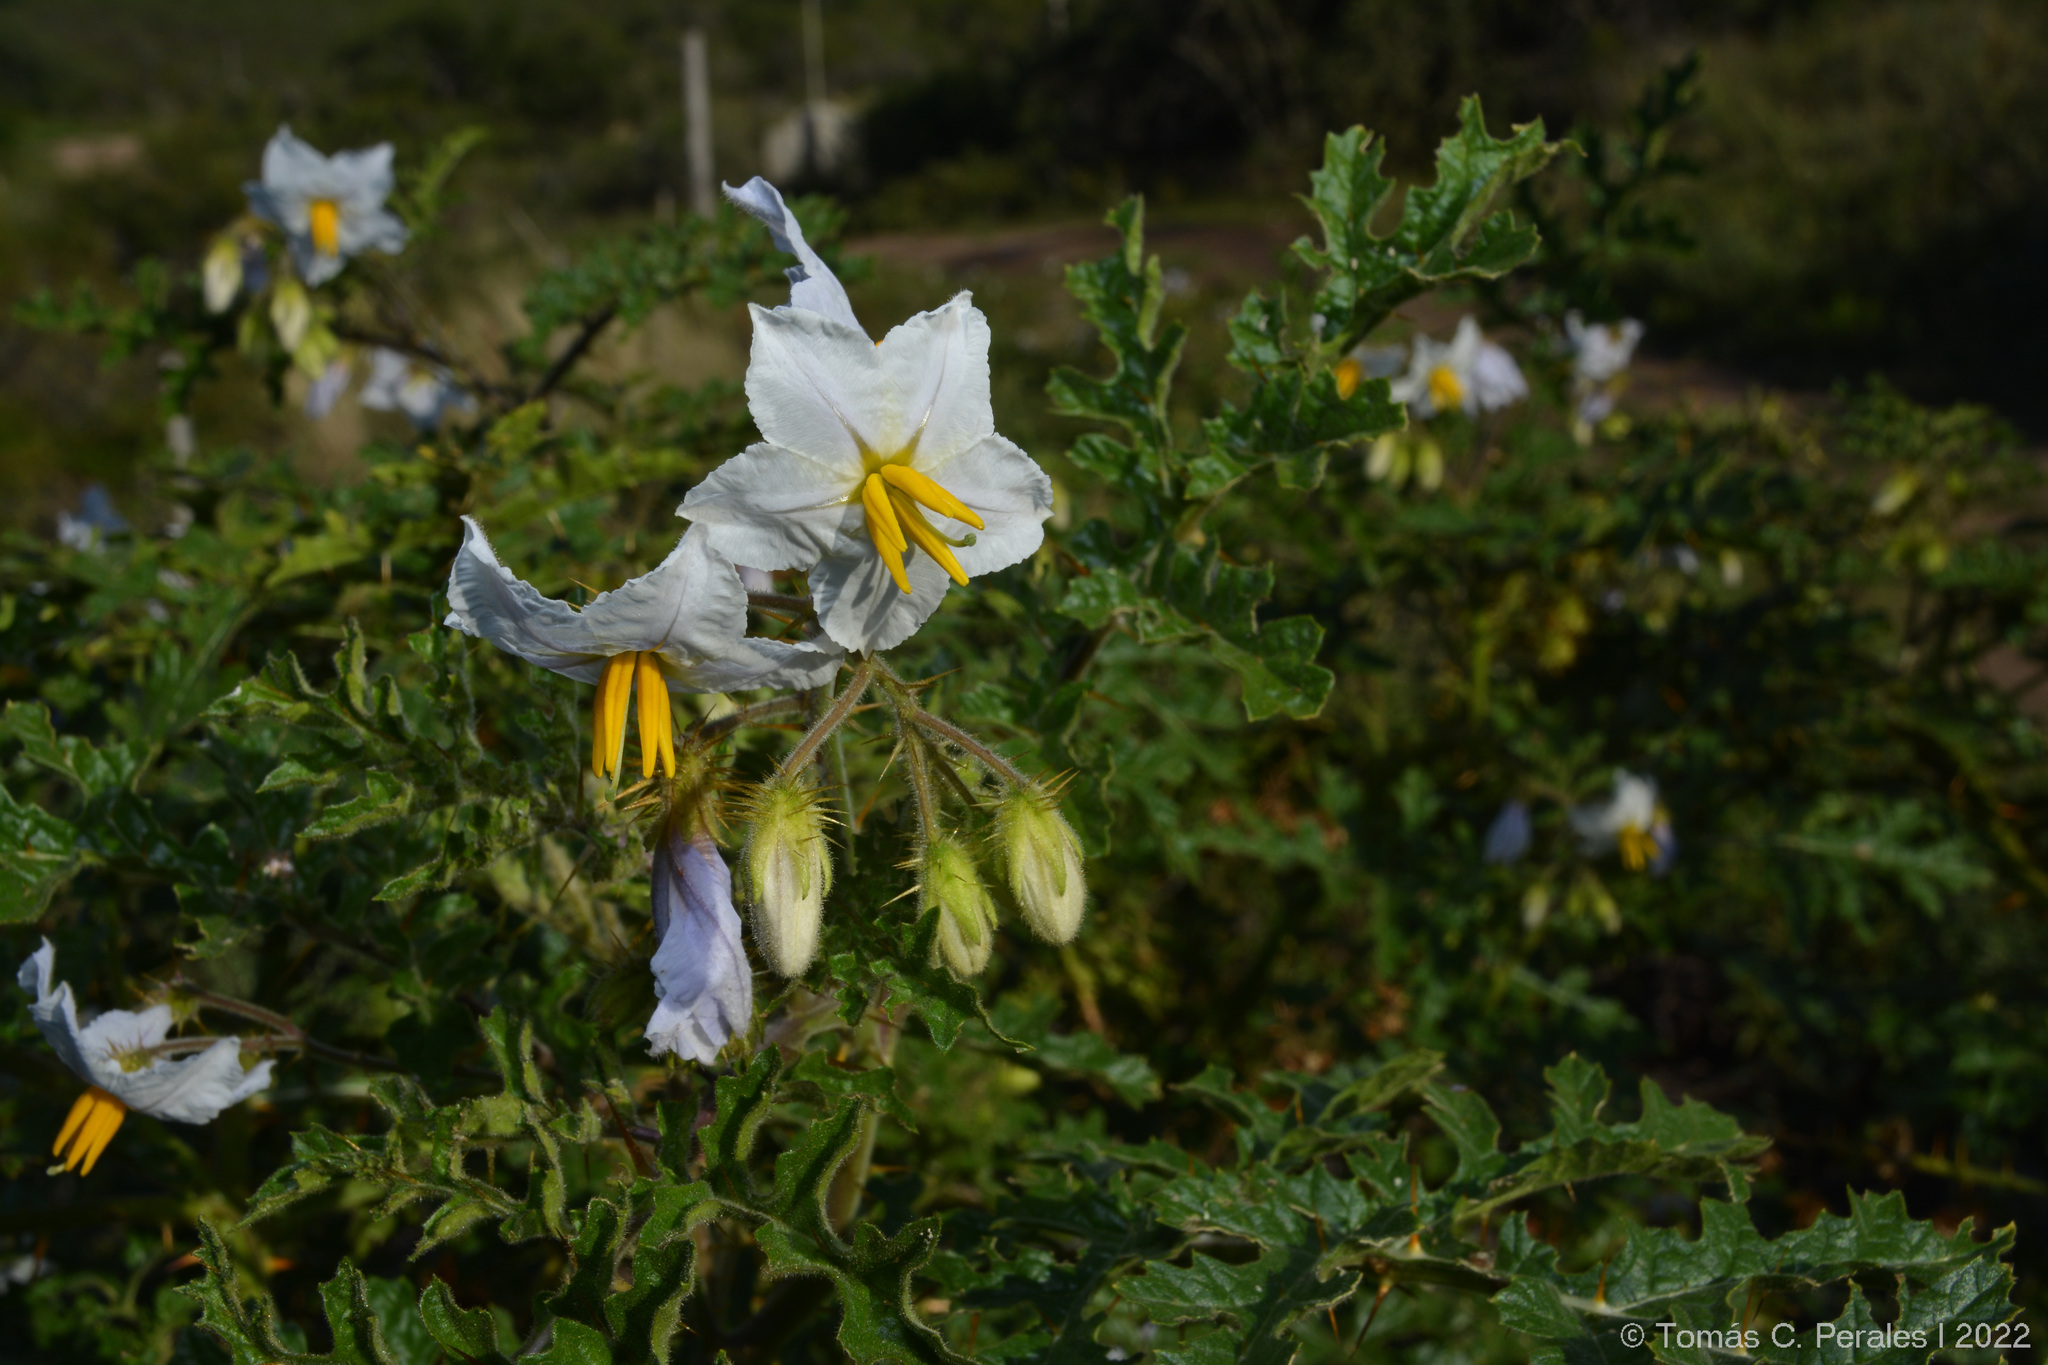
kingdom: Plantae
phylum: Tracheophyta
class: Magnoliopsida
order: Solanales
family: Solanaceae
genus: Solanum
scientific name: Solanum sisymbriifolium
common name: Red buffalo-bur
